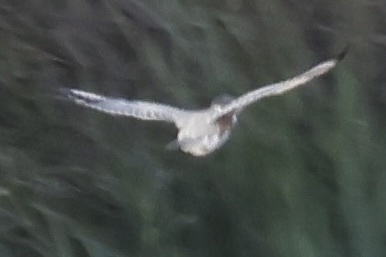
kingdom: Animalia
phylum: Chordata
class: Aves
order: Coraciiformes
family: Alcedinidae
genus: Megaceryle
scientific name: Megaceryle alcyon
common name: Belted kingfisher
